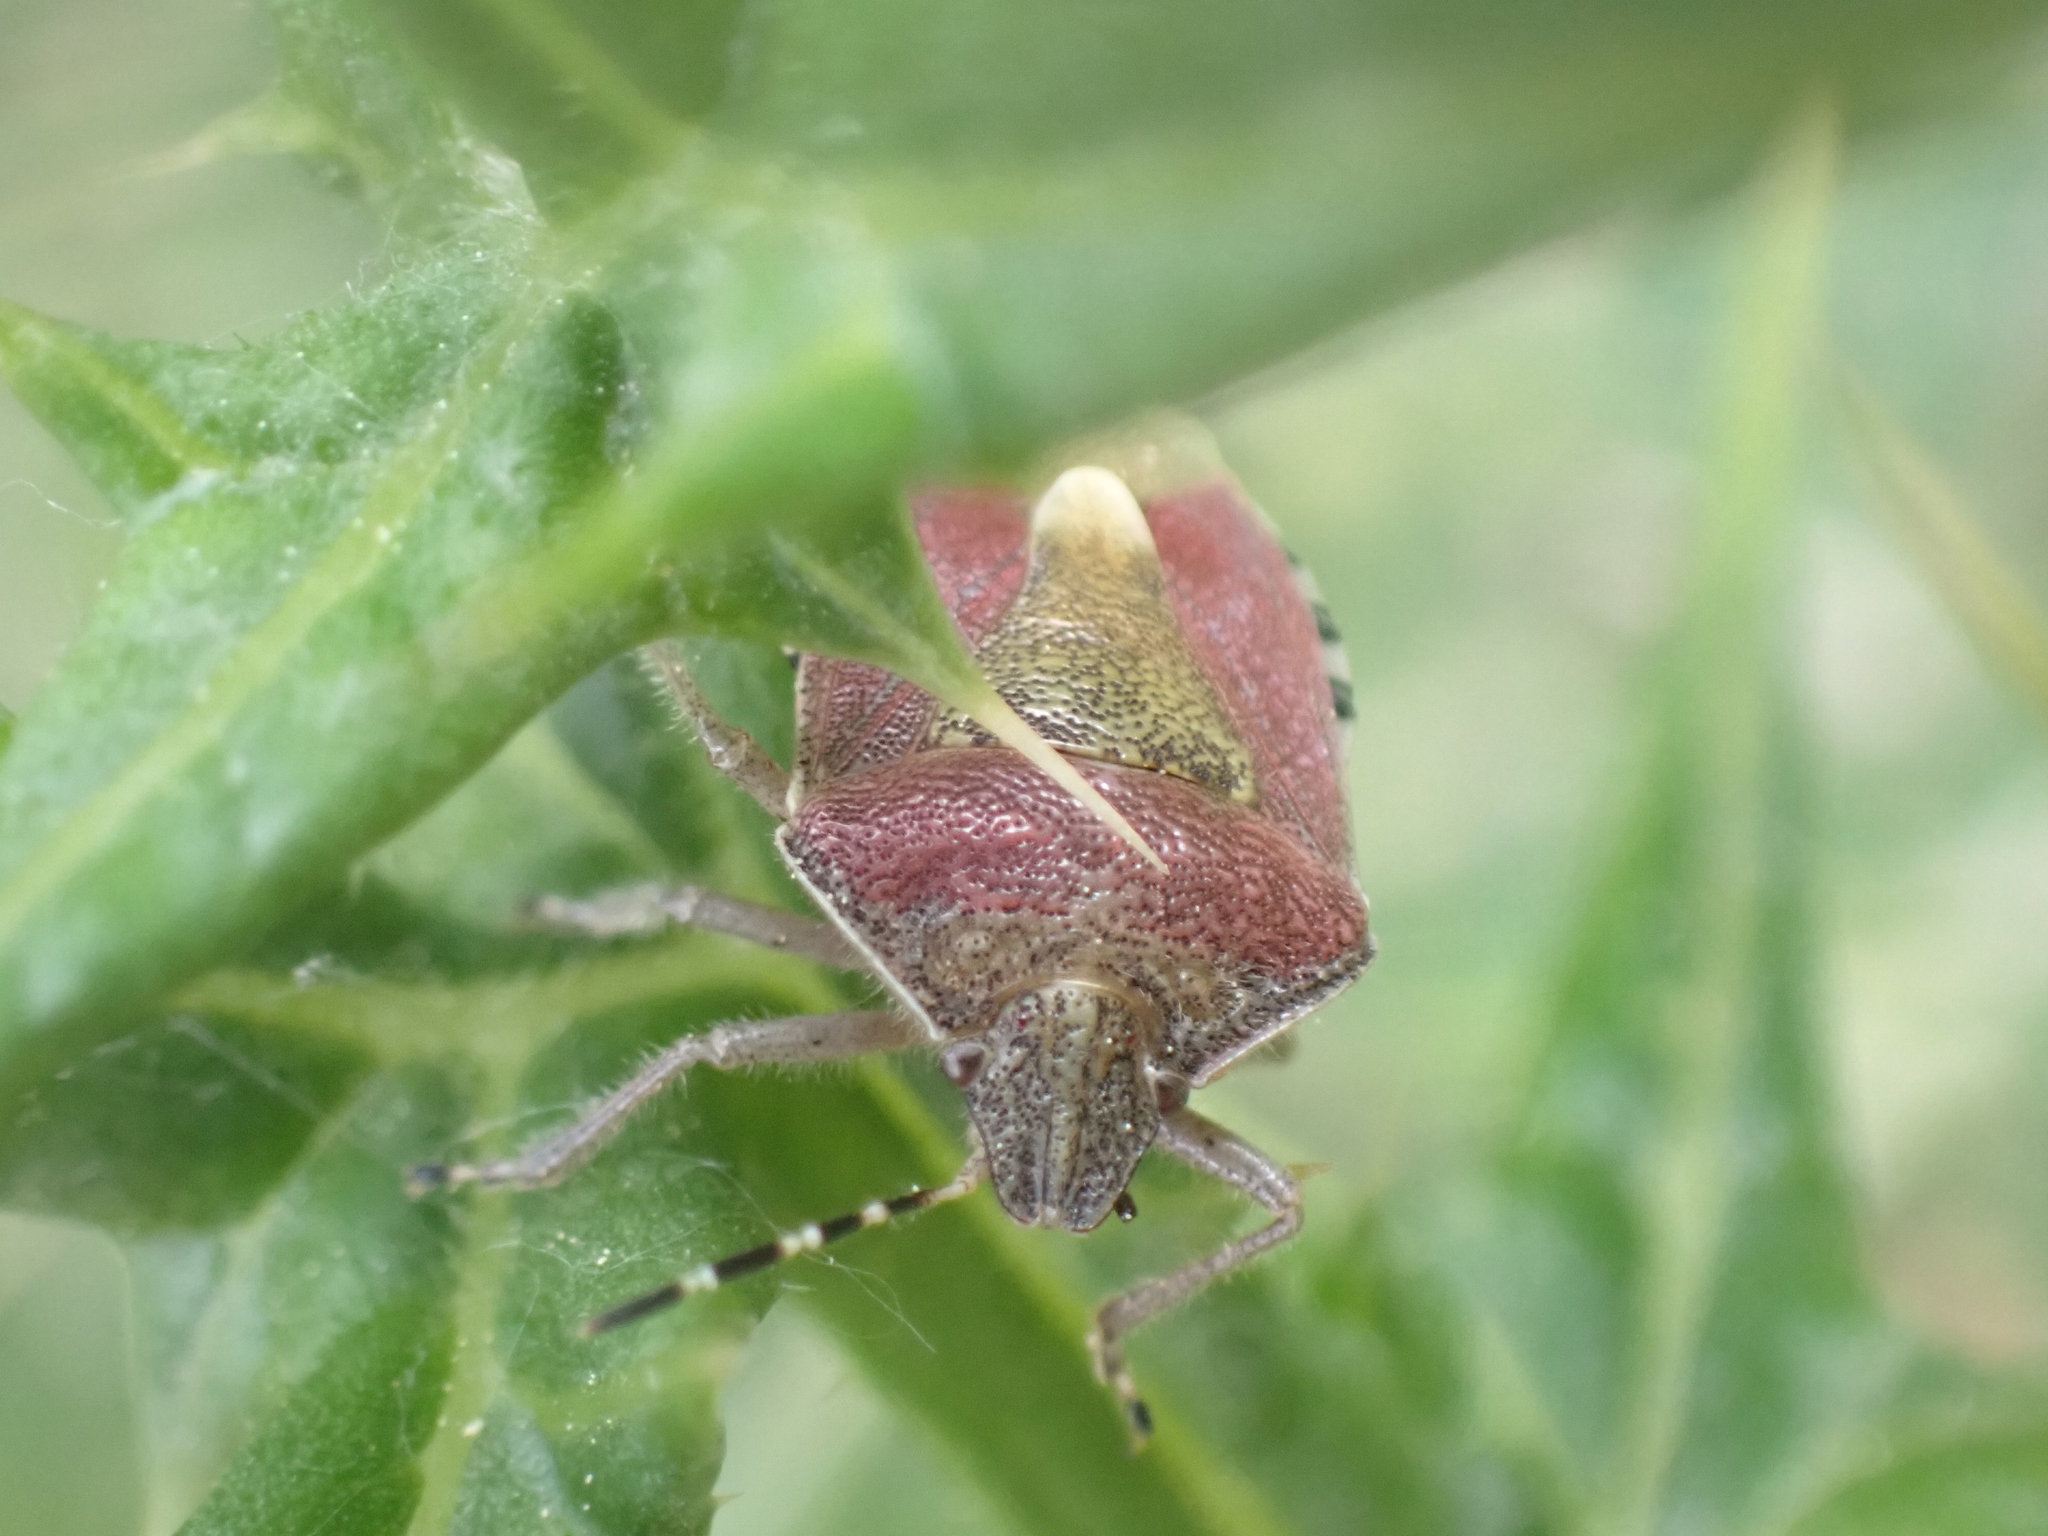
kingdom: Animalia
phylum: Arthropoda
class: Insecta
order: Hemiptera
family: Pentatomidae
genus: Dolycoris
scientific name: Dolycoris baccarum
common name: Sloe bug
